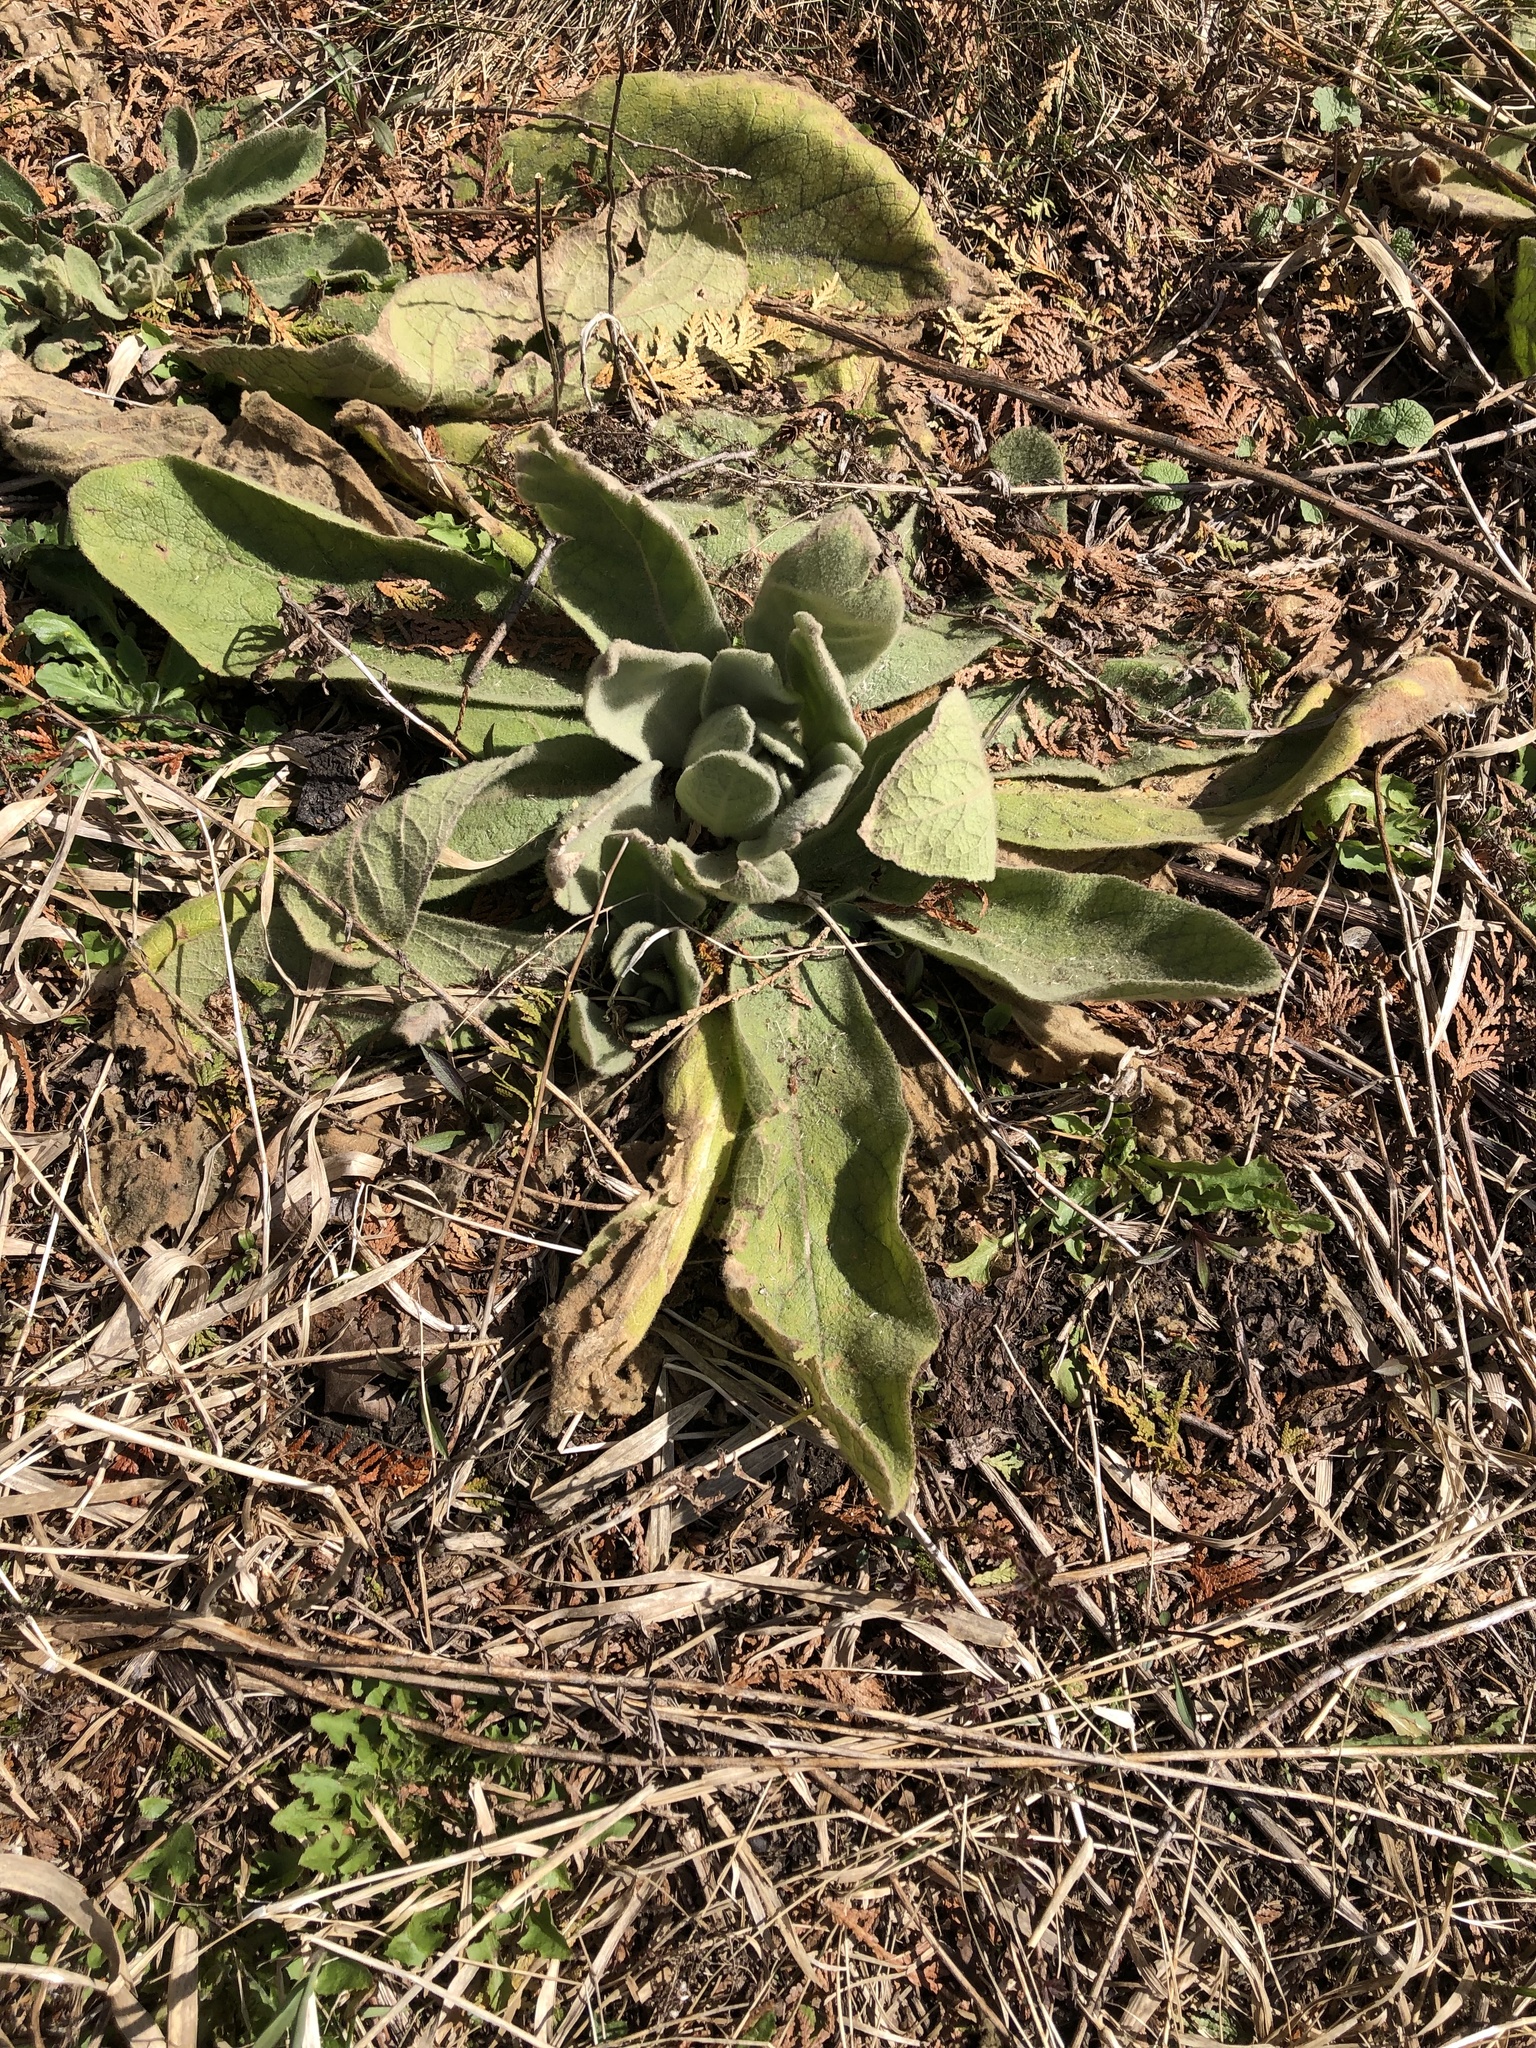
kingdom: Plantae
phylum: Tracheophyta
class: Magnoliopsida
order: Lamiales
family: Scrophulariaceae
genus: Verbascum
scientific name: Verbascum thapsus
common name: Common mullein
